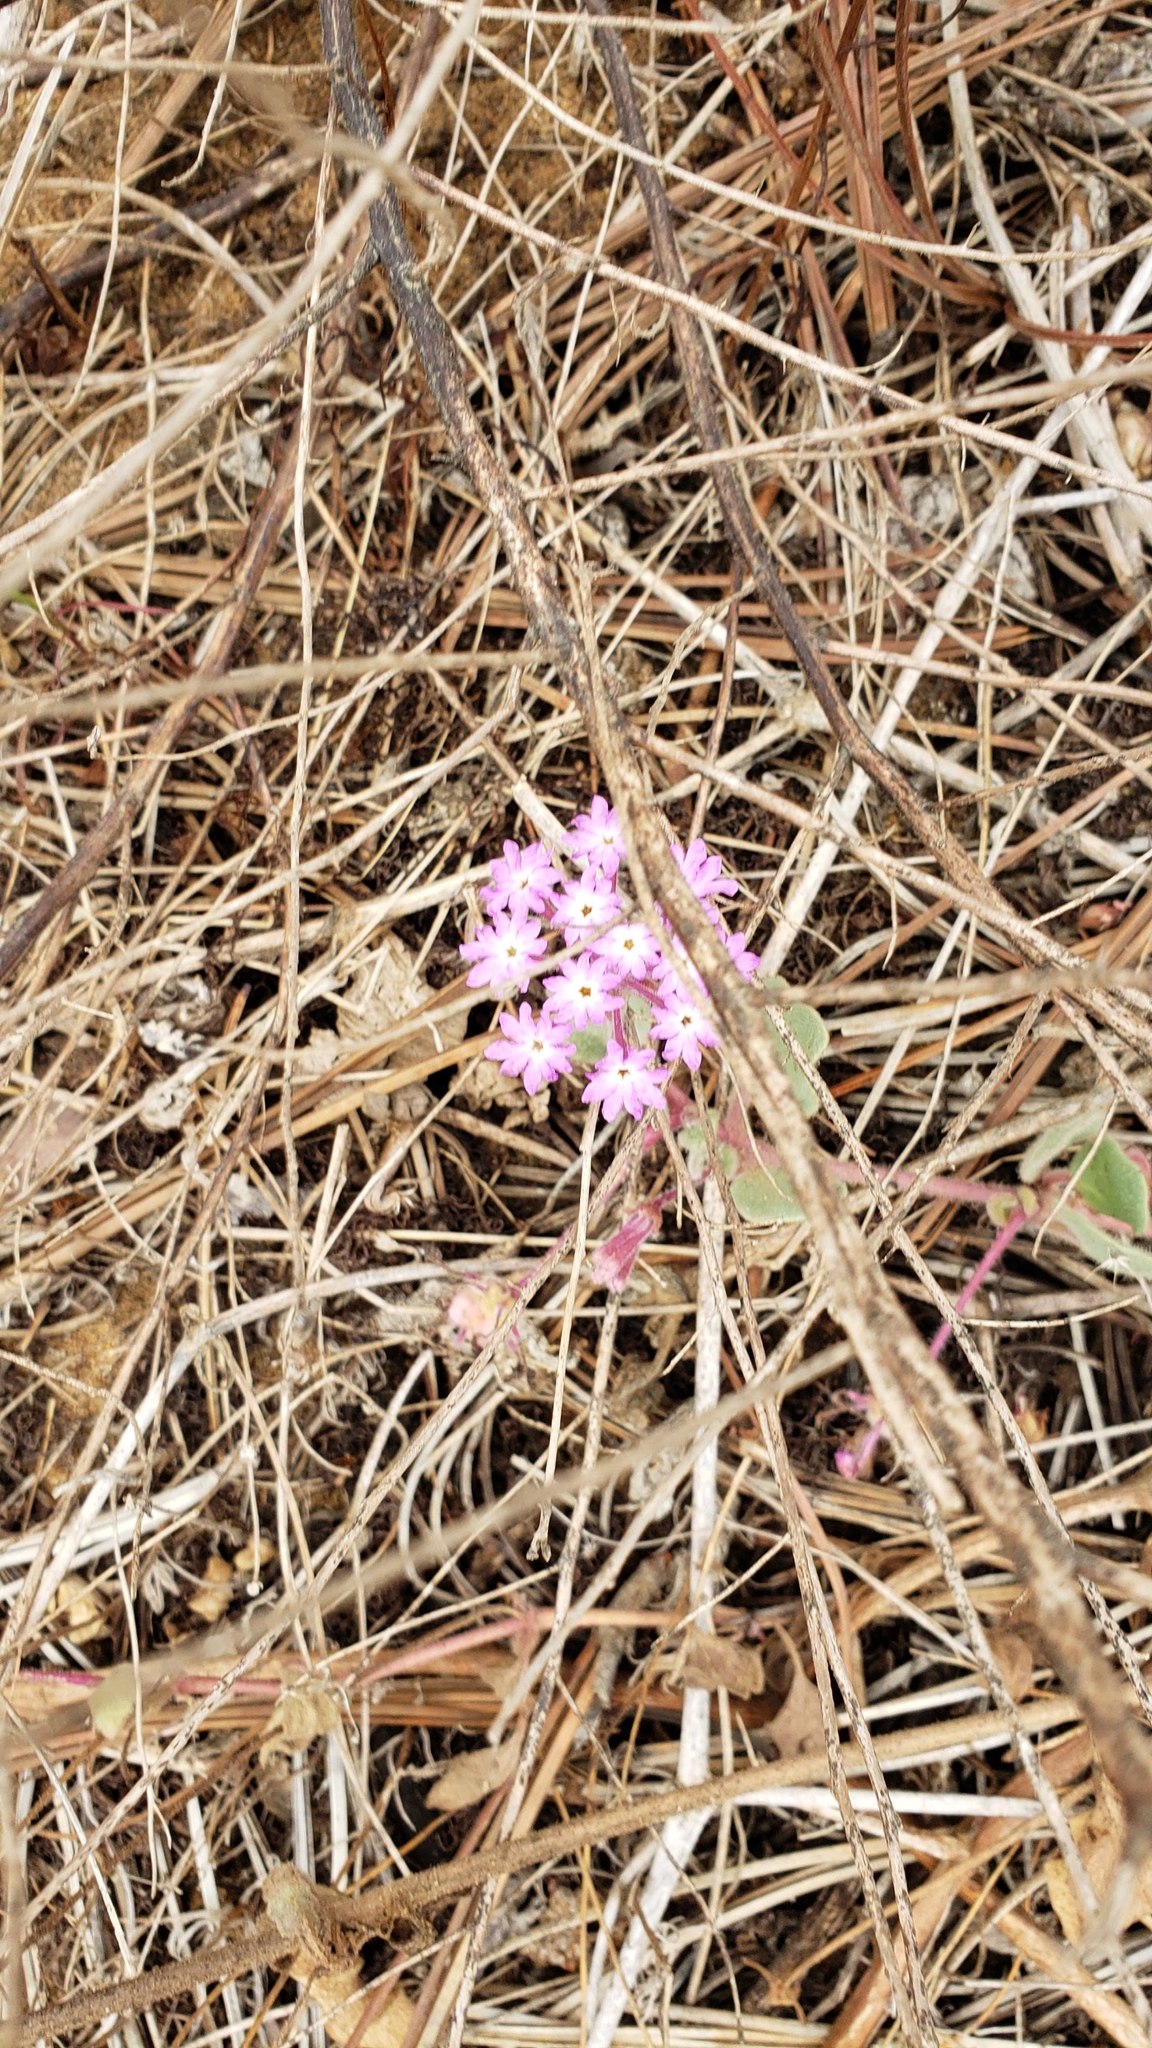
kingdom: Plantae
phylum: Tracheophyta
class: Magnoliopsida
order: Caryophyllales
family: Nyctaginaceae
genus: Abronia
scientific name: Abronia umbellata
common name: Sand-verbena
